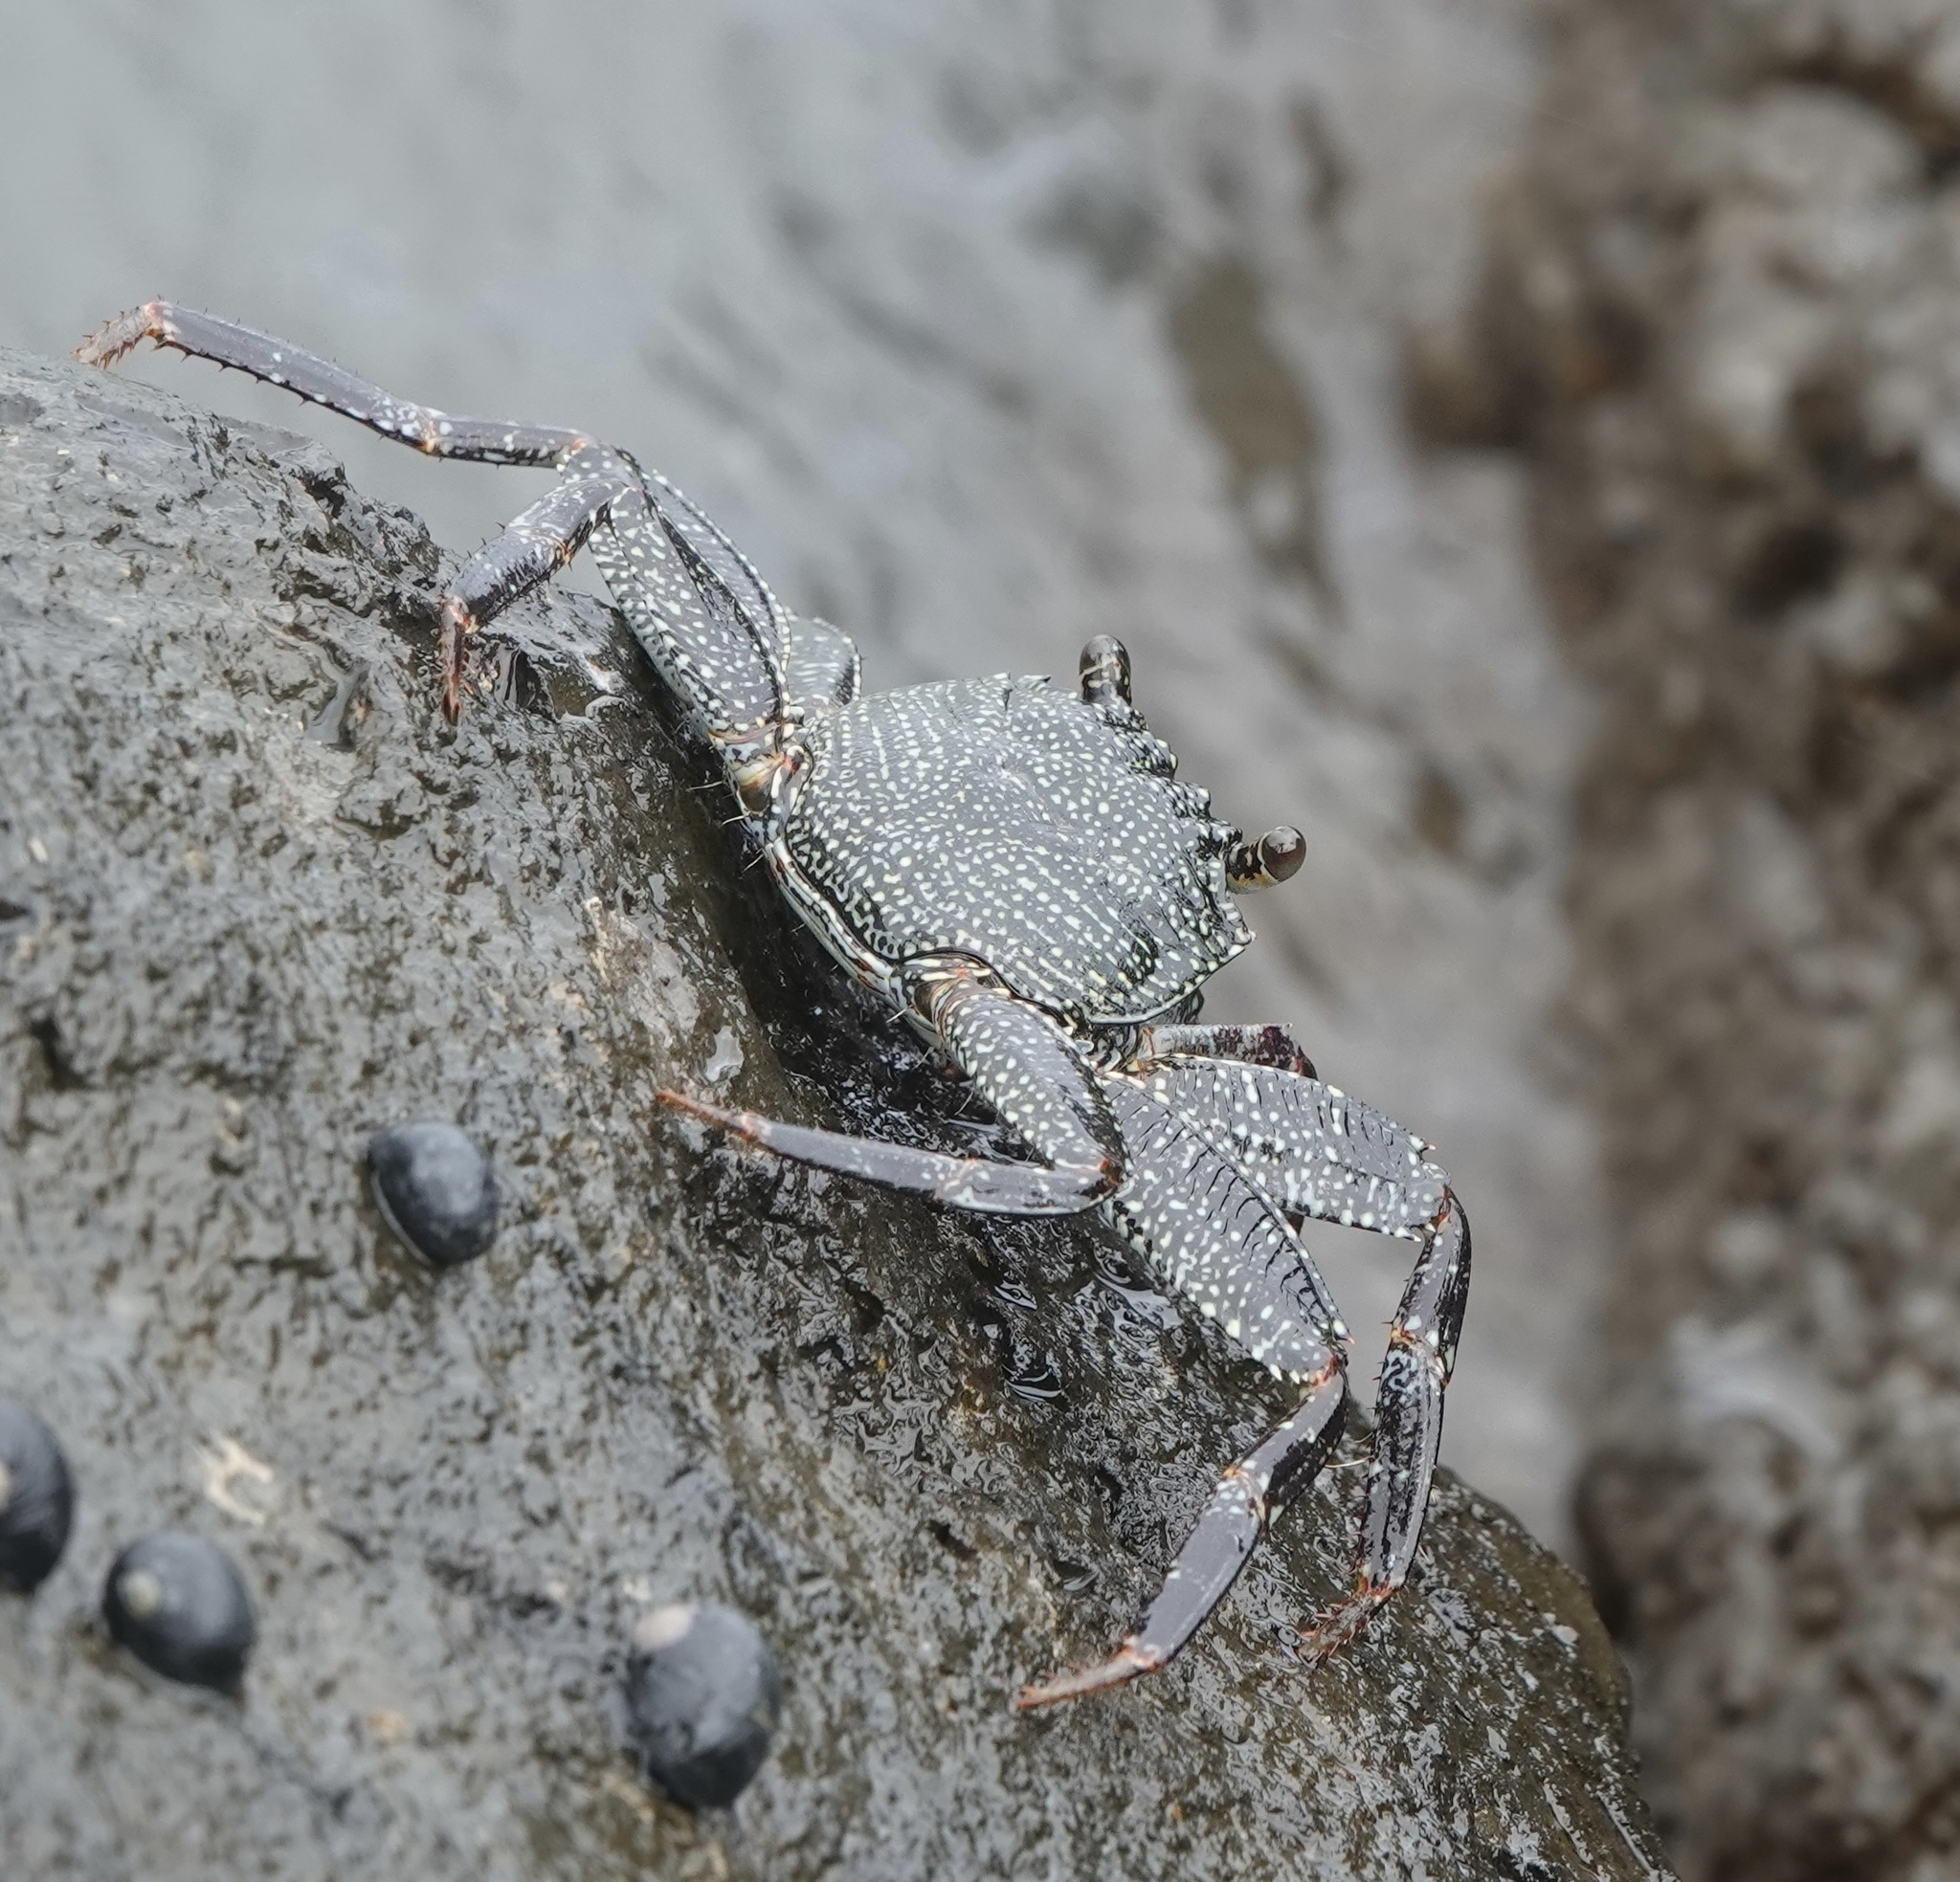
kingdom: Animalia
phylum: Arthropoda
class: Malacostraca
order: Decapoda
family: Grapsidae
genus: Grapsus
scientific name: Grapsus tenuicrustatus
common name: Natal lightfoot crab
